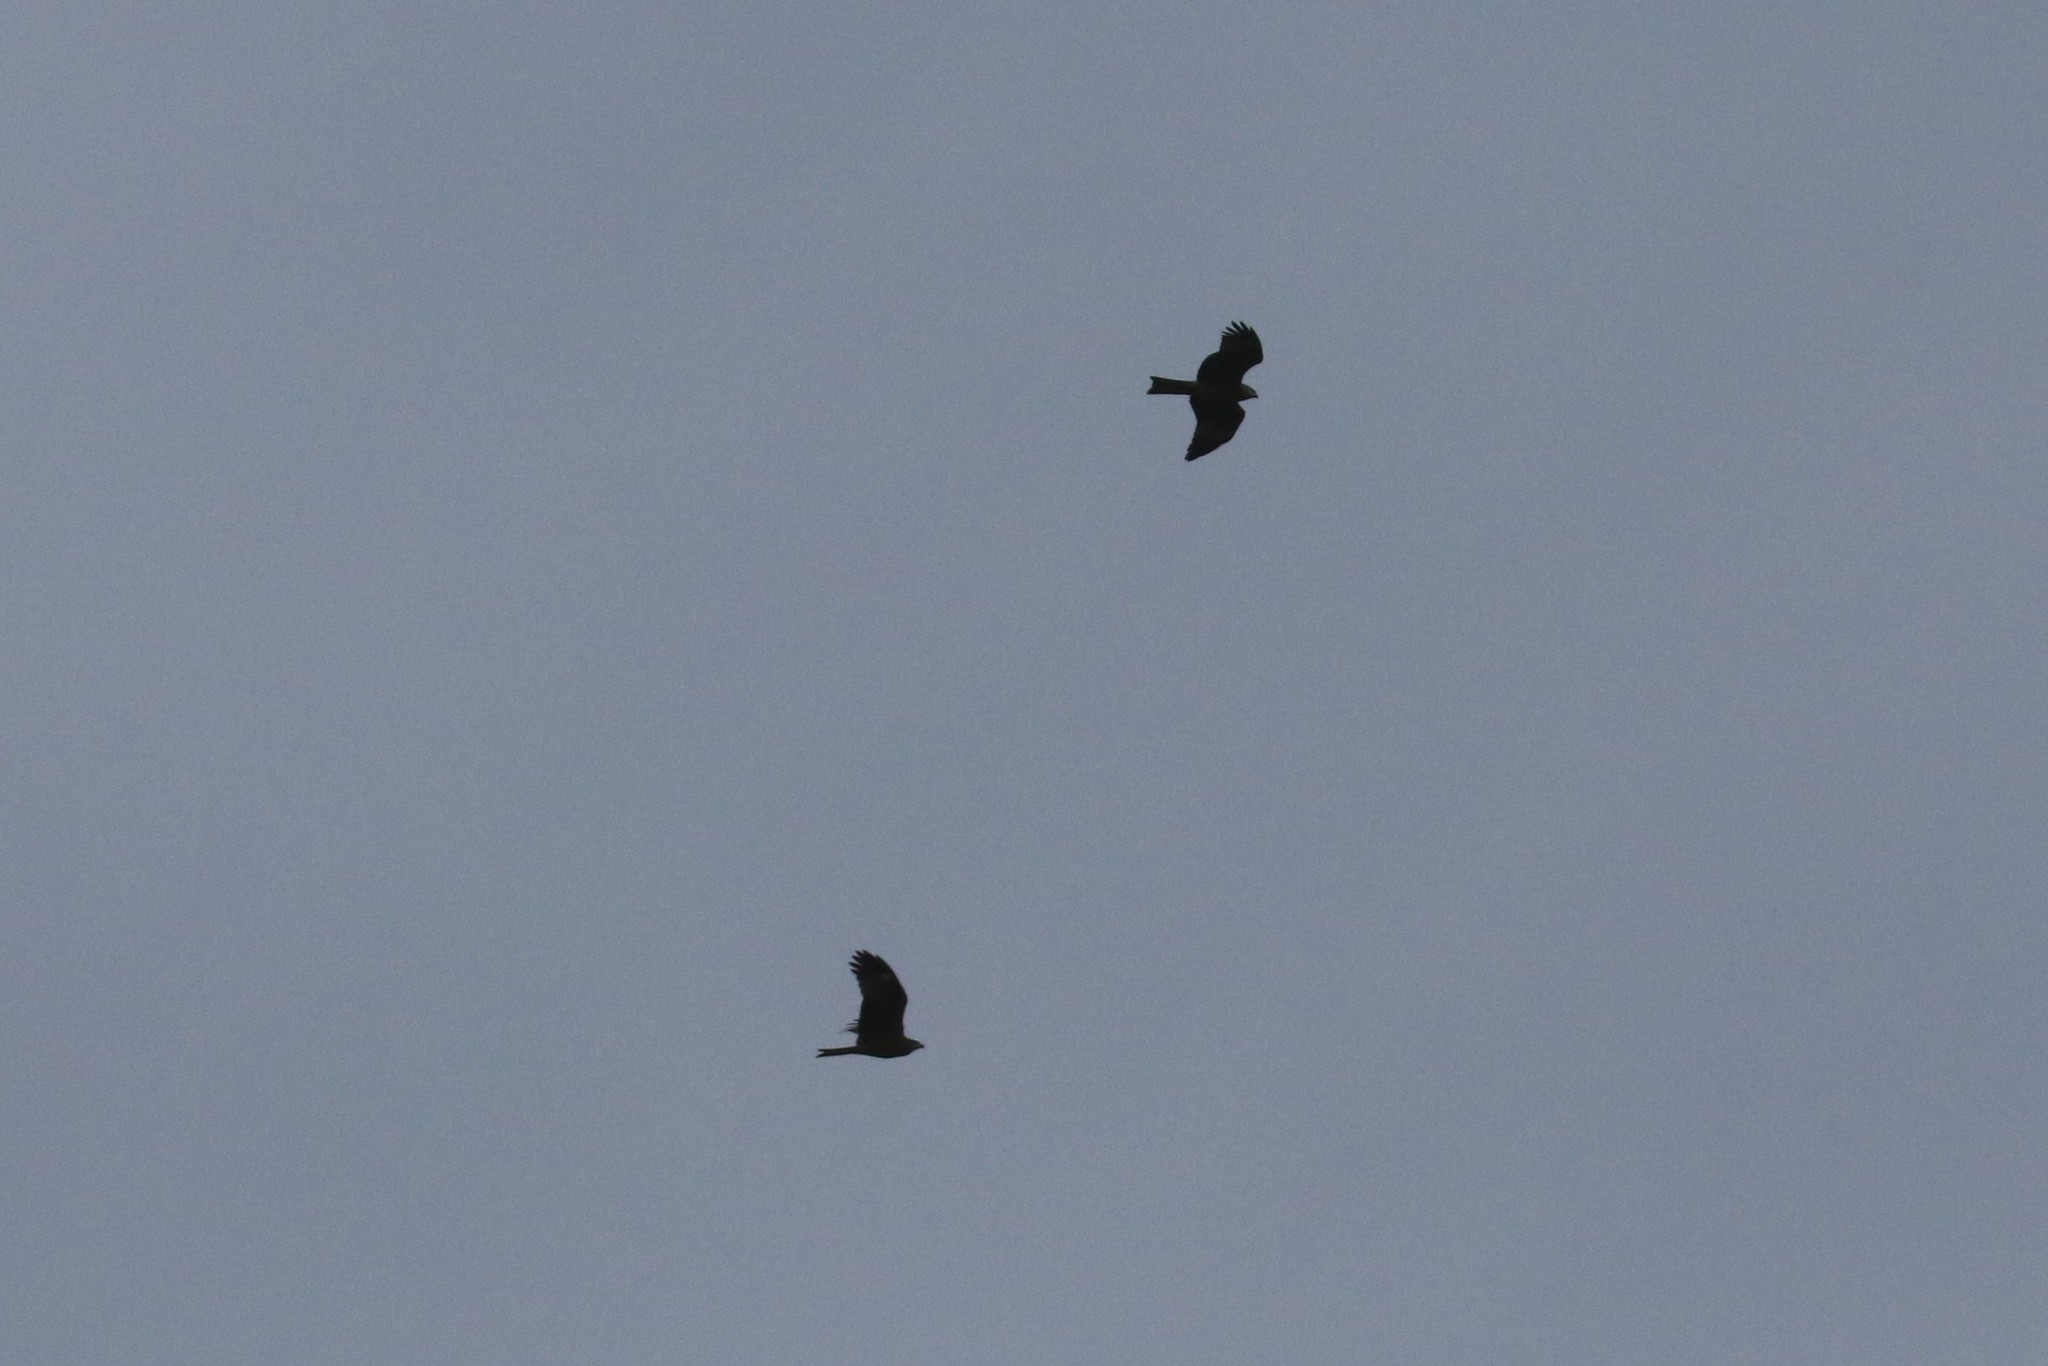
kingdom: Animalia
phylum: Chordata
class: Aves
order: Accipitriformes
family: Accipitridae
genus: Milvus
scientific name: Milvus migrans
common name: Black kite
